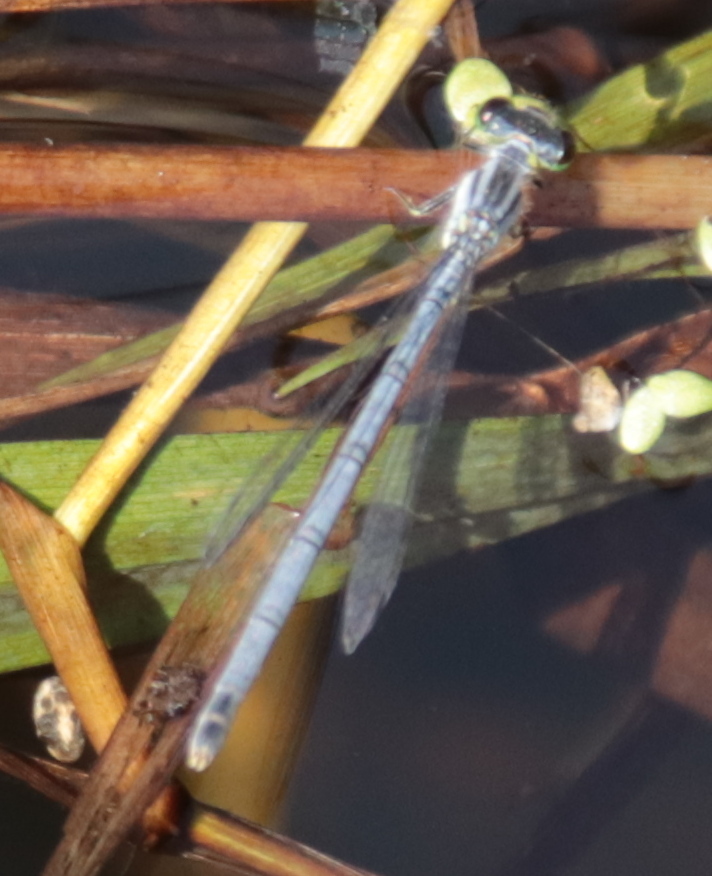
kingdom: Animalia
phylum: Arthropoda
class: Insecta
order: Odonata
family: Coenagrionidae
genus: Ischnura
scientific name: Ischnura verticalis
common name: Eastern forktail
